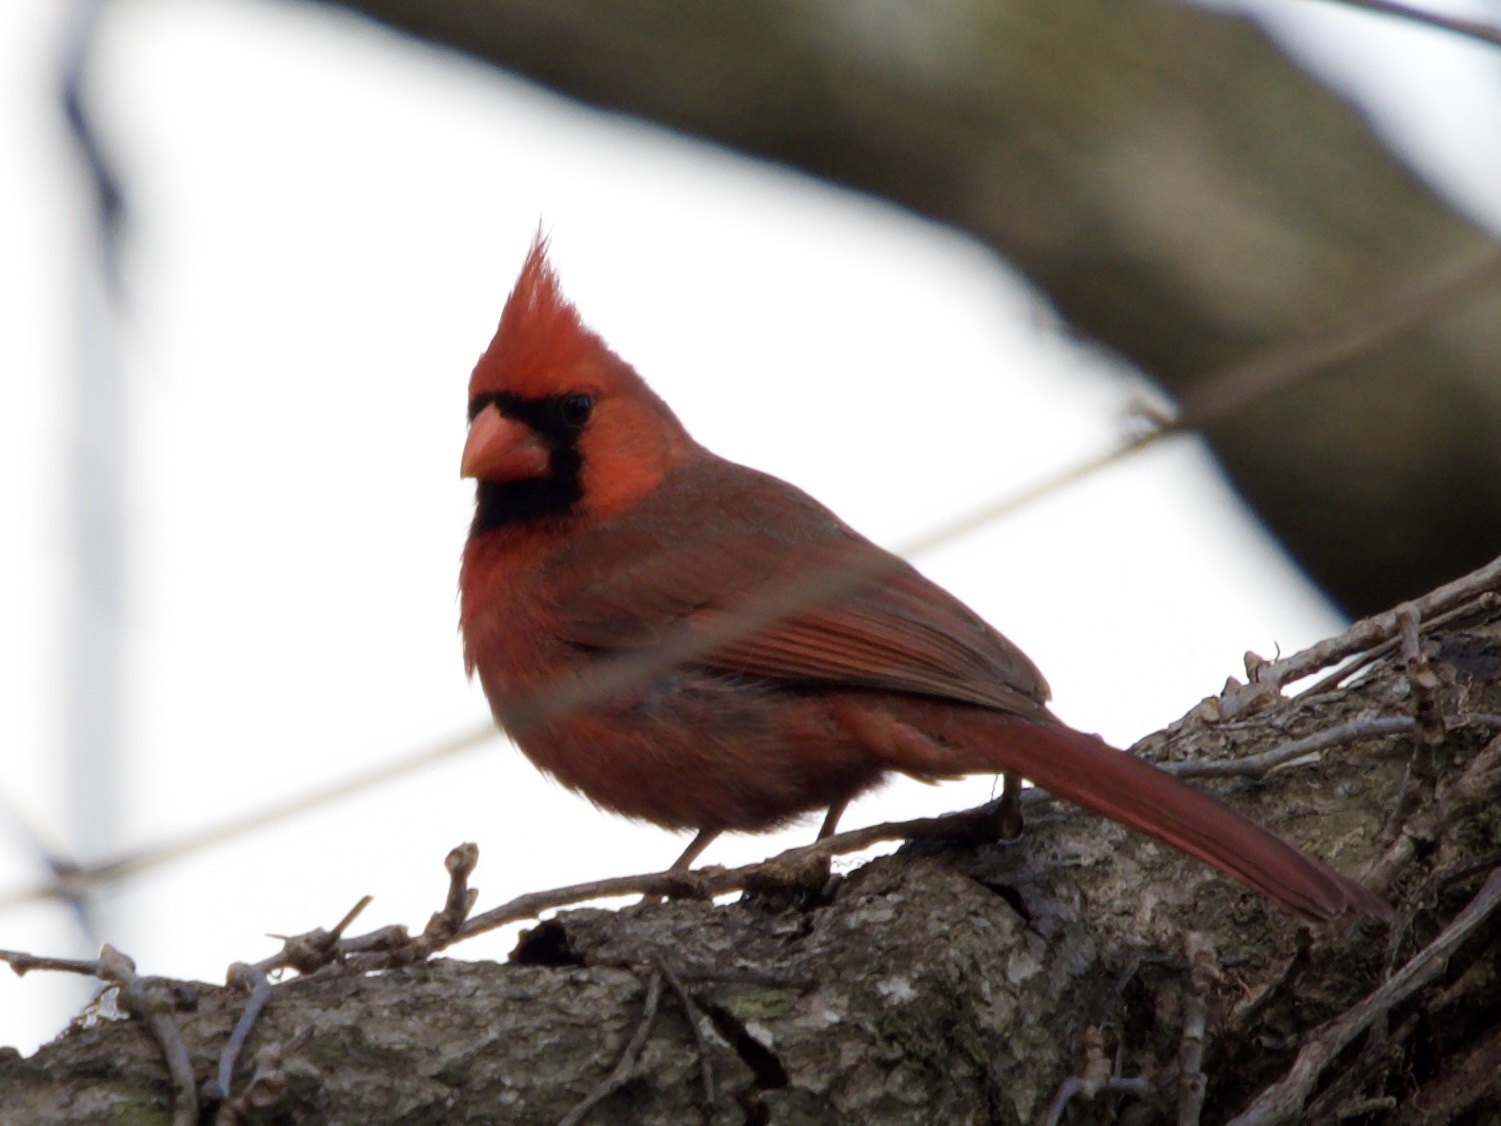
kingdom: Animalia
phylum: Chordata
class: Aves
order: Passeriformes
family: Cardinalidae
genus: Cardinalis
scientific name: Cardinalis cardinalis
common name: Northern cardinal
